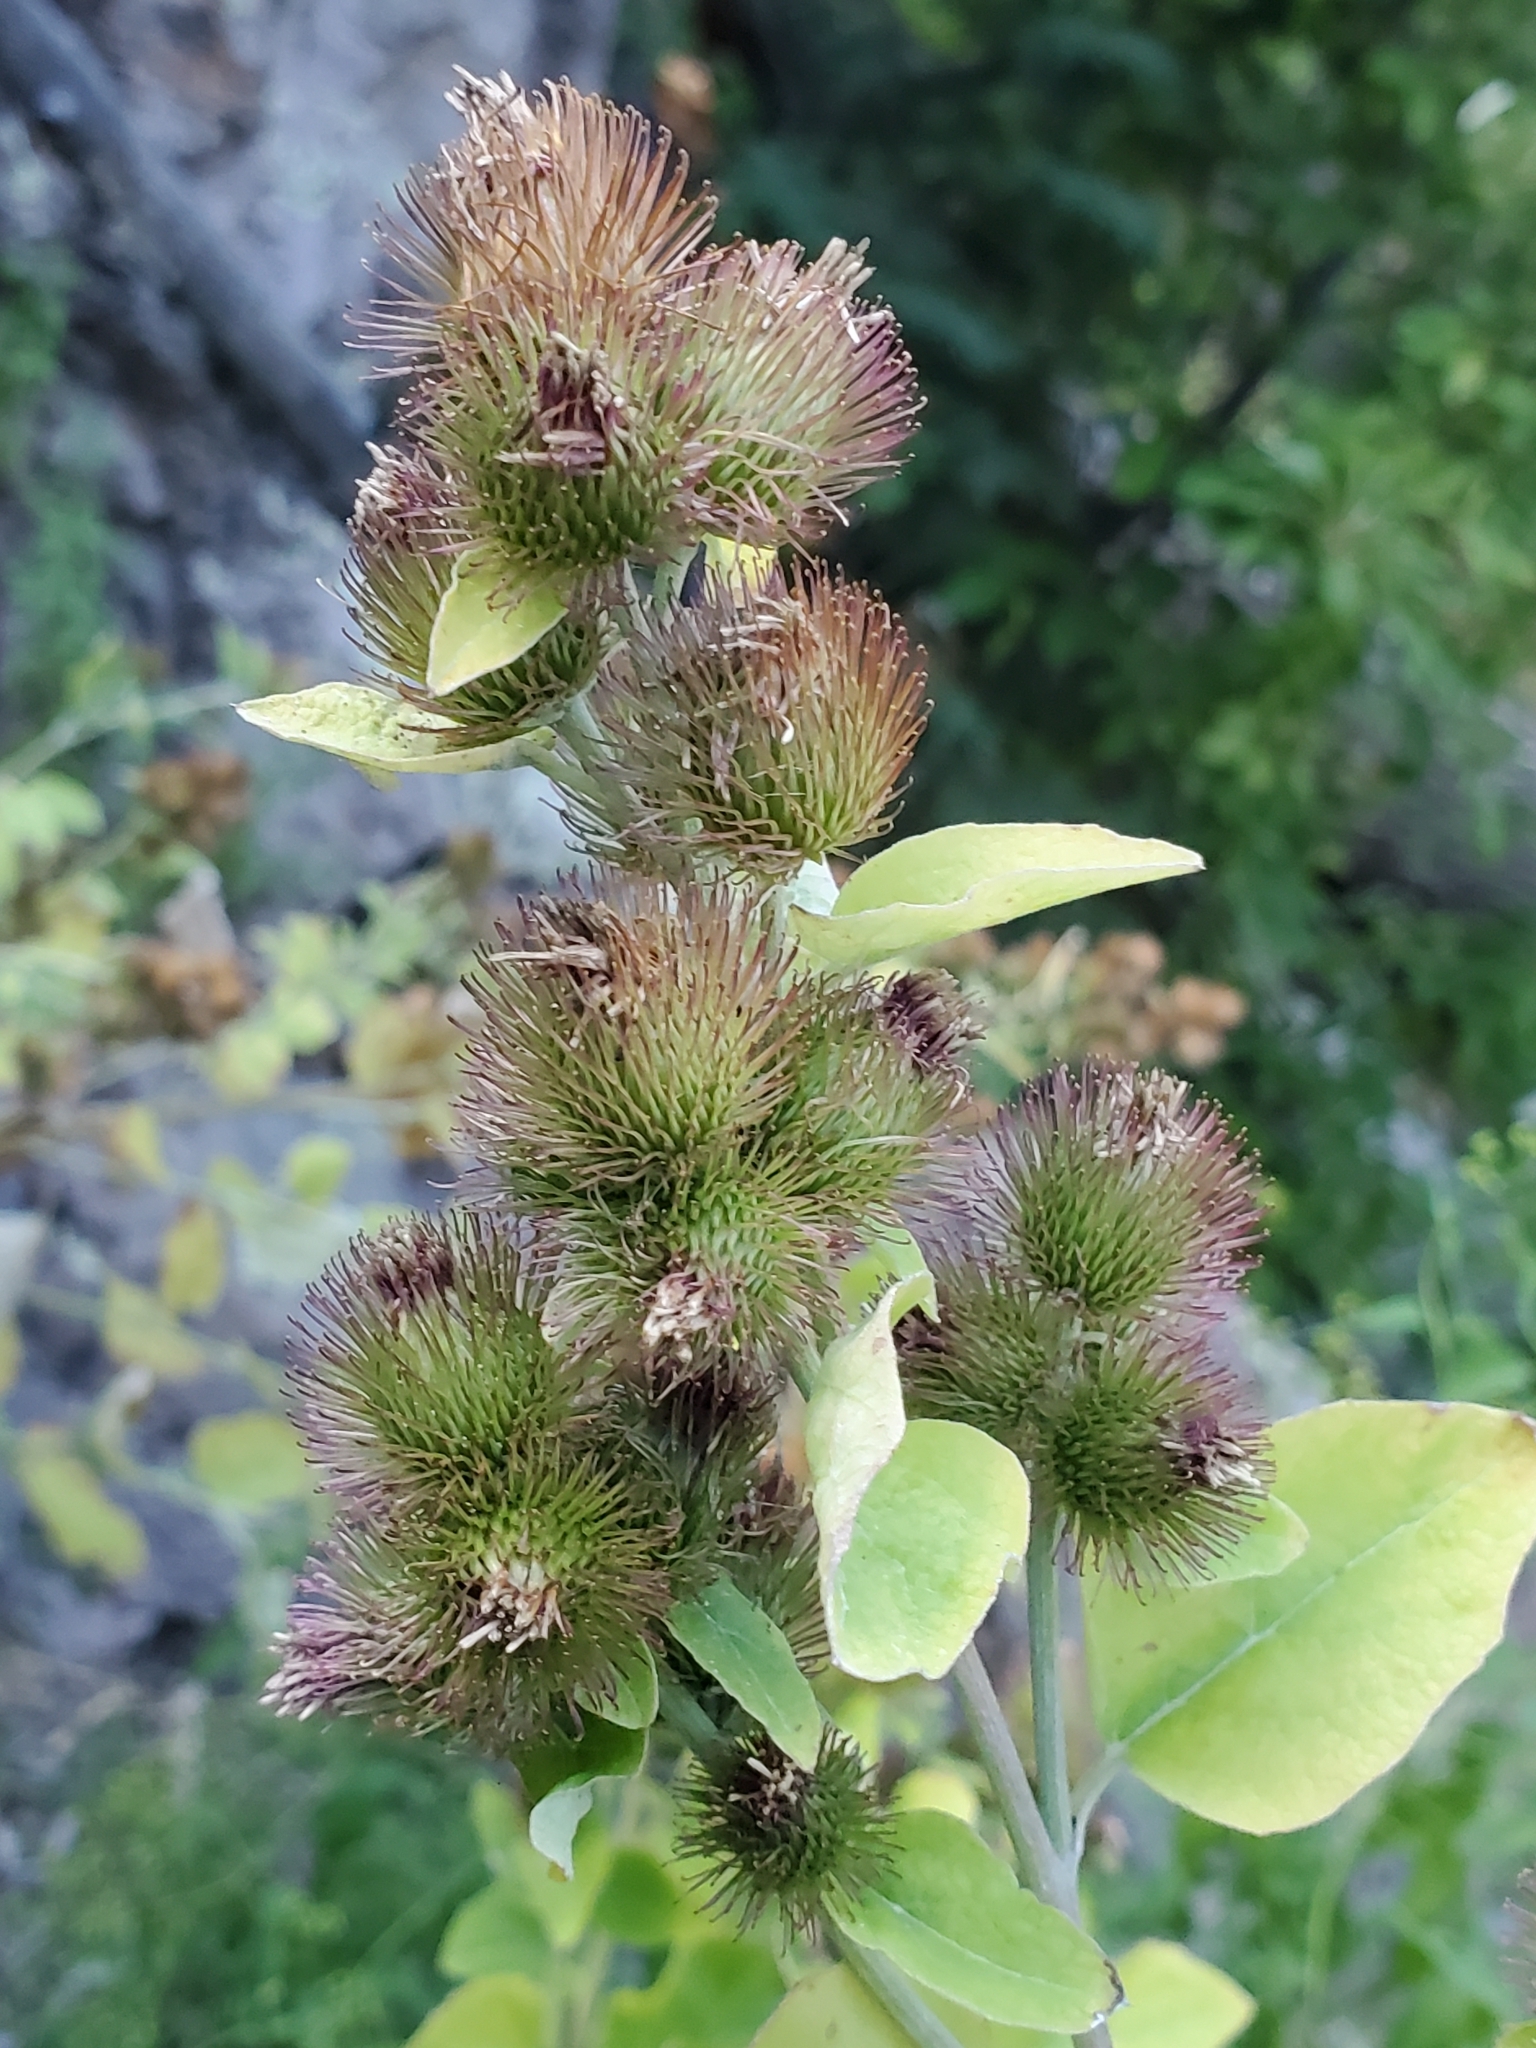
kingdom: Plantae
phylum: Tracheophyta
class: Magnoliopsida
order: Asterales
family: Asteraceae
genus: Arctium
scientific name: Arctium minus
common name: Lesser burdock
